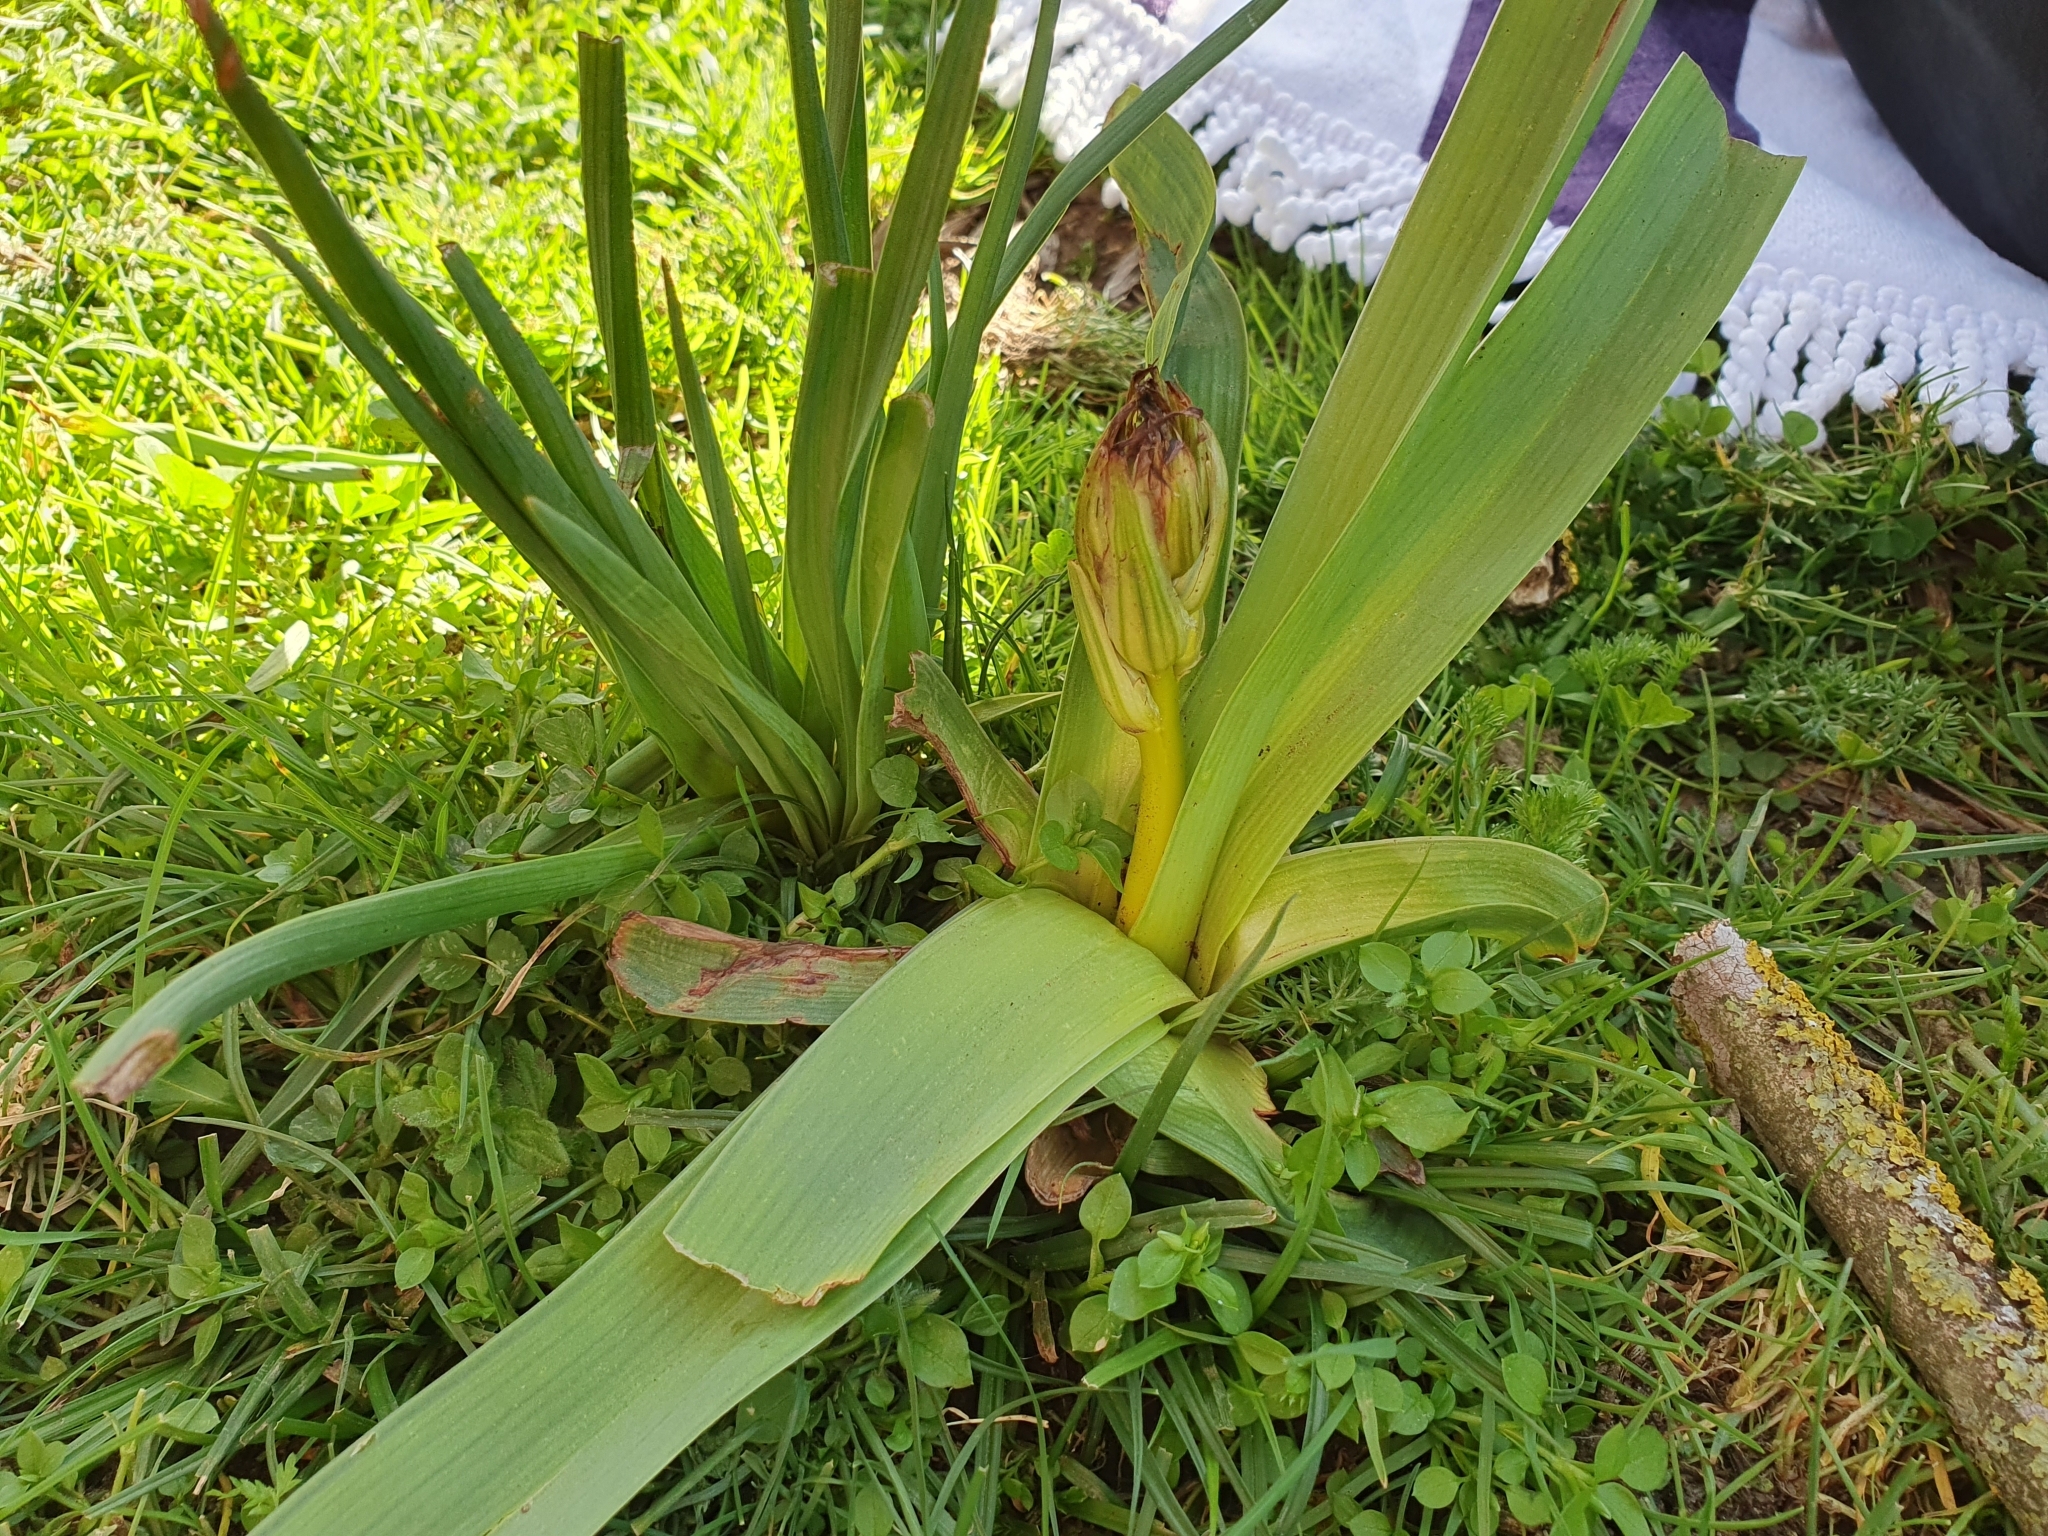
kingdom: Plantae
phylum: Tracheophyta
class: Liliopsida
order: Asparagales
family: Asphodelaceae
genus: Asphodelus
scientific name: Asphodelus ramosus
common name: Silverrod
